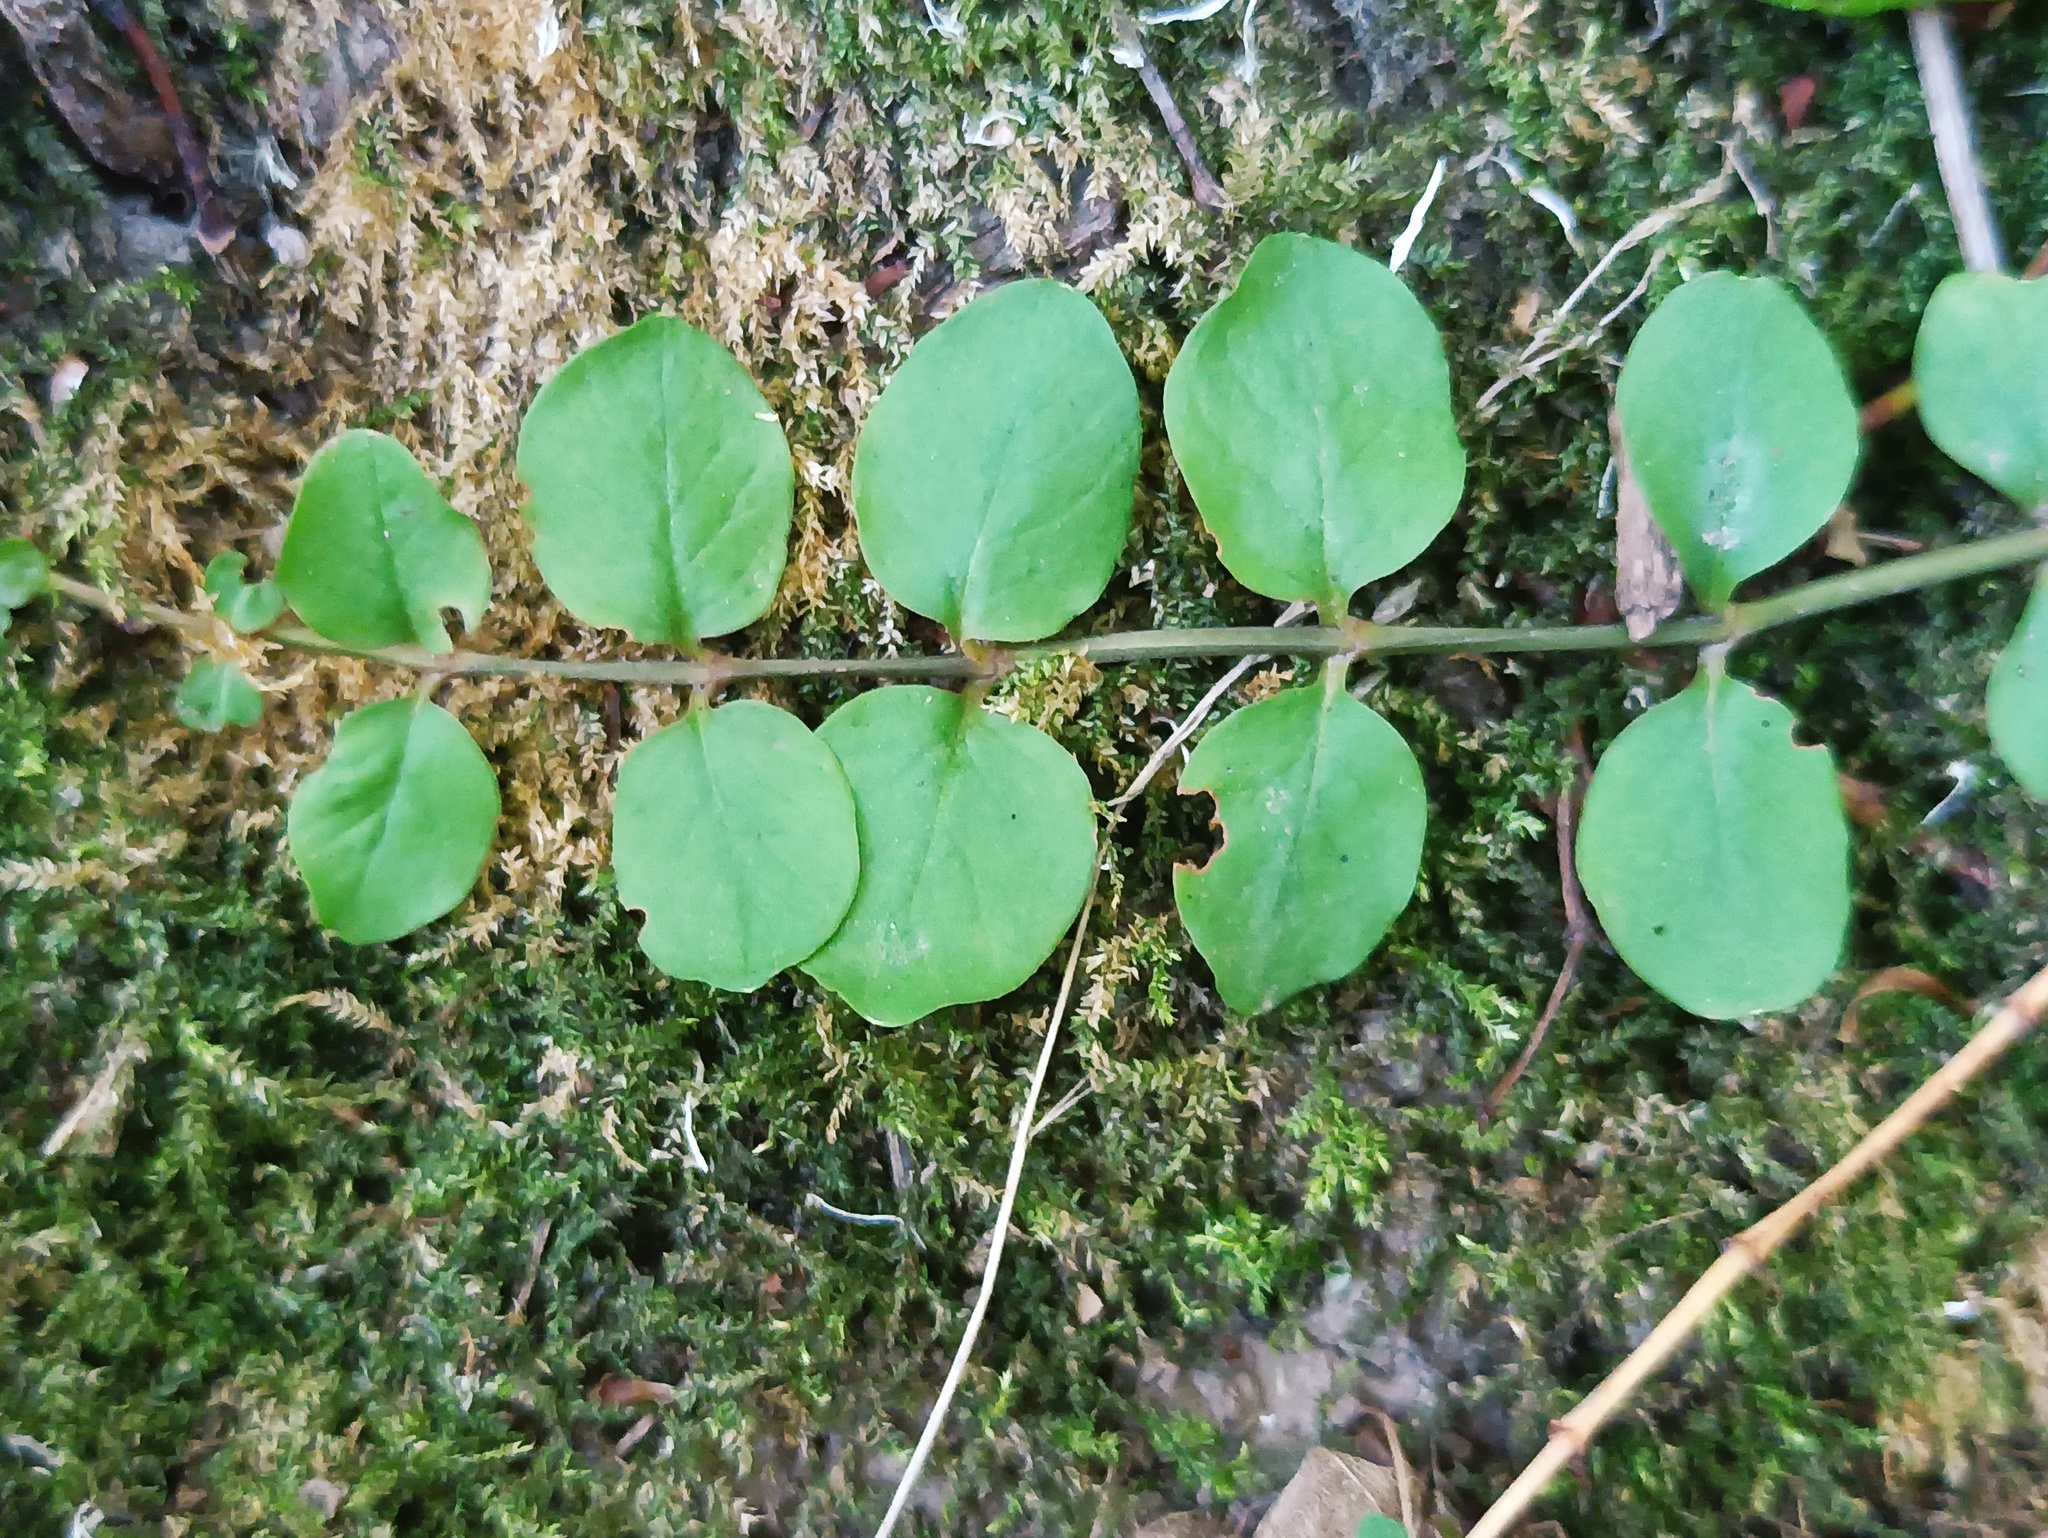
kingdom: Plantae
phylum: Tracheophyta
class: Magnoliopsida
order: Ericales
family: Primulaceae
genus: Lysimachia
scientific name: Lysimachia nummularia
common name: Moneywort
